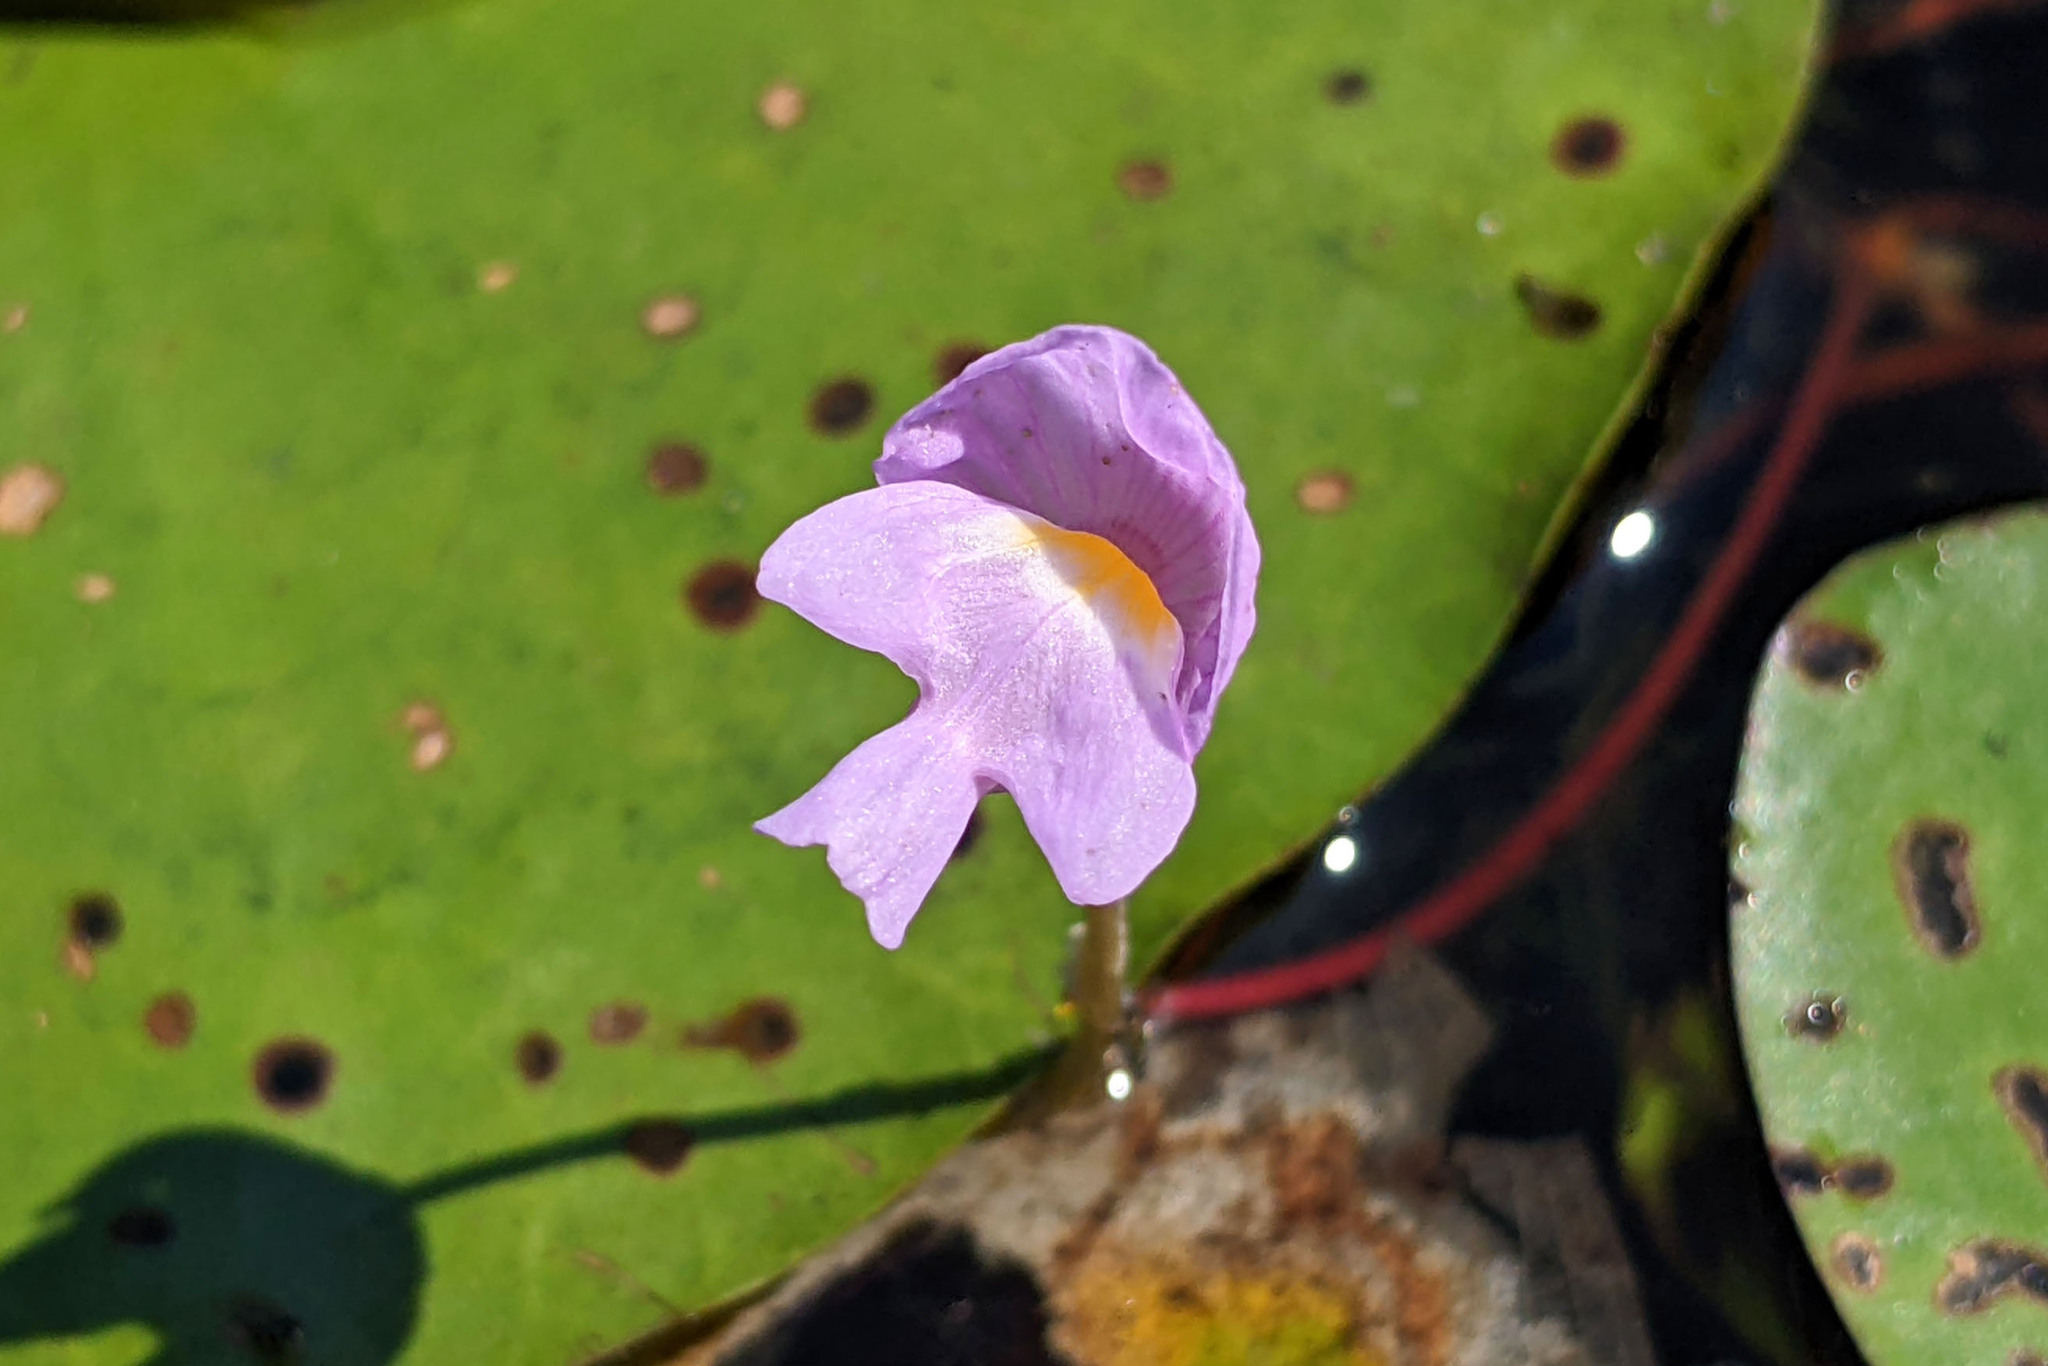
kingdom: Plantae
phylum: Tracheophyta
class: Magnoliopsida
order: Lamiales
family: Lentibulariaceae
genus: Utricularia
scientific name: Utricularia purpurea
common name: Eastern purple bladderwort
